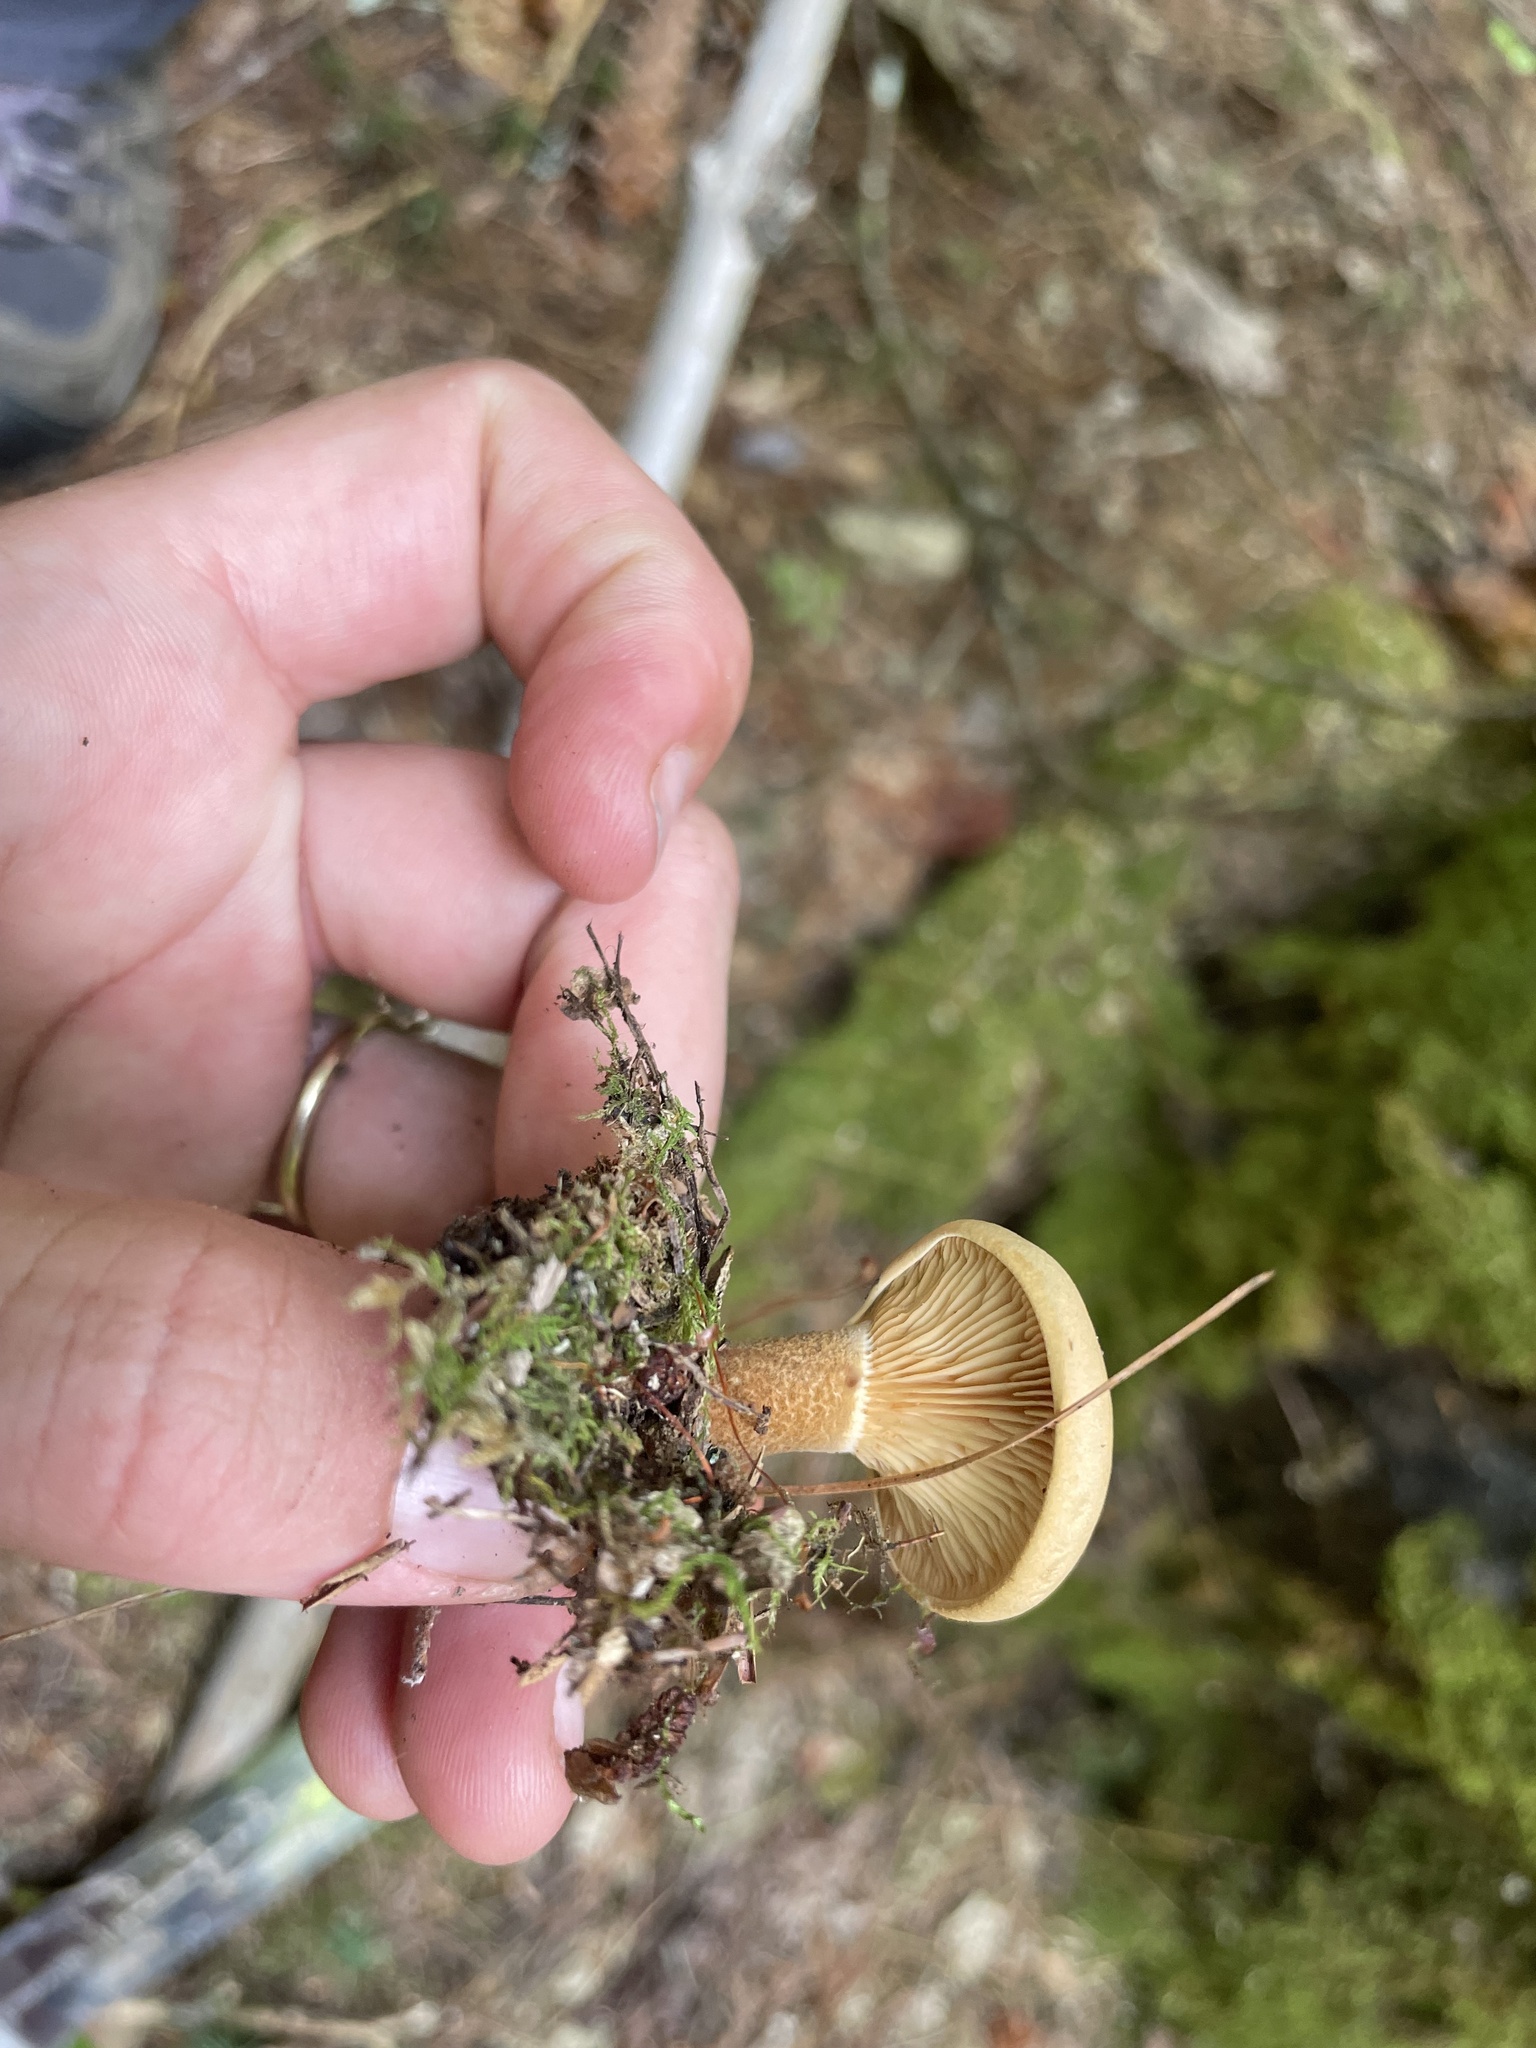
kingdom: Fungi
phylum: Basidiomycota
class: Agaricomycetes
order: Boletales
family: Tapinellaceae
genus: Tapinella
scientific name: Tapinella atrotomentosa
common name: Velvet rollrim
